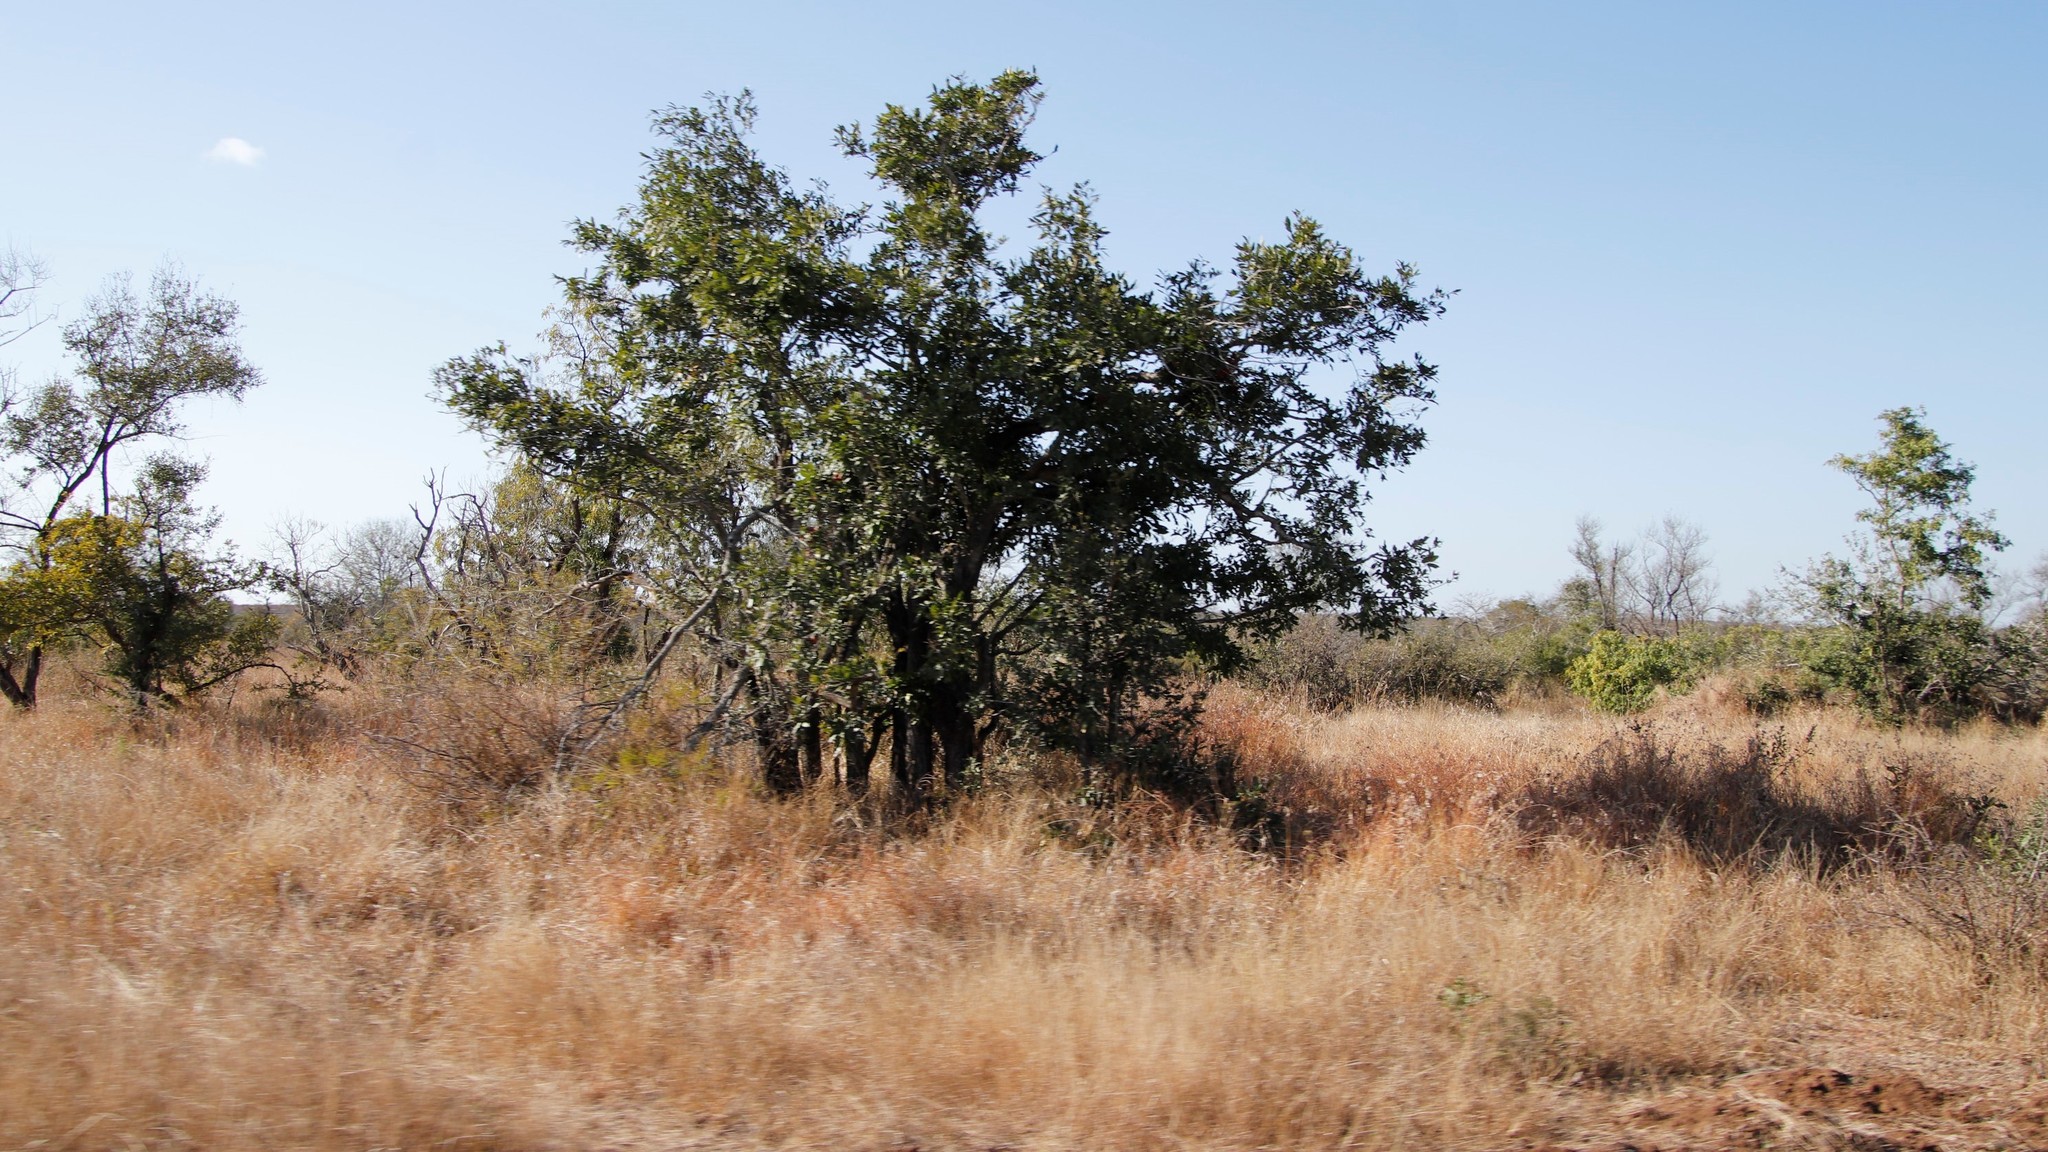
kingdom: Plantae
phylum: Tracheophyta
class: Magnoliopsida
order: Ericales
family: Ebenaceae
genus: Diospyros
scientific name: Diospyros mespiliformis
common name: Ebony diospyros
